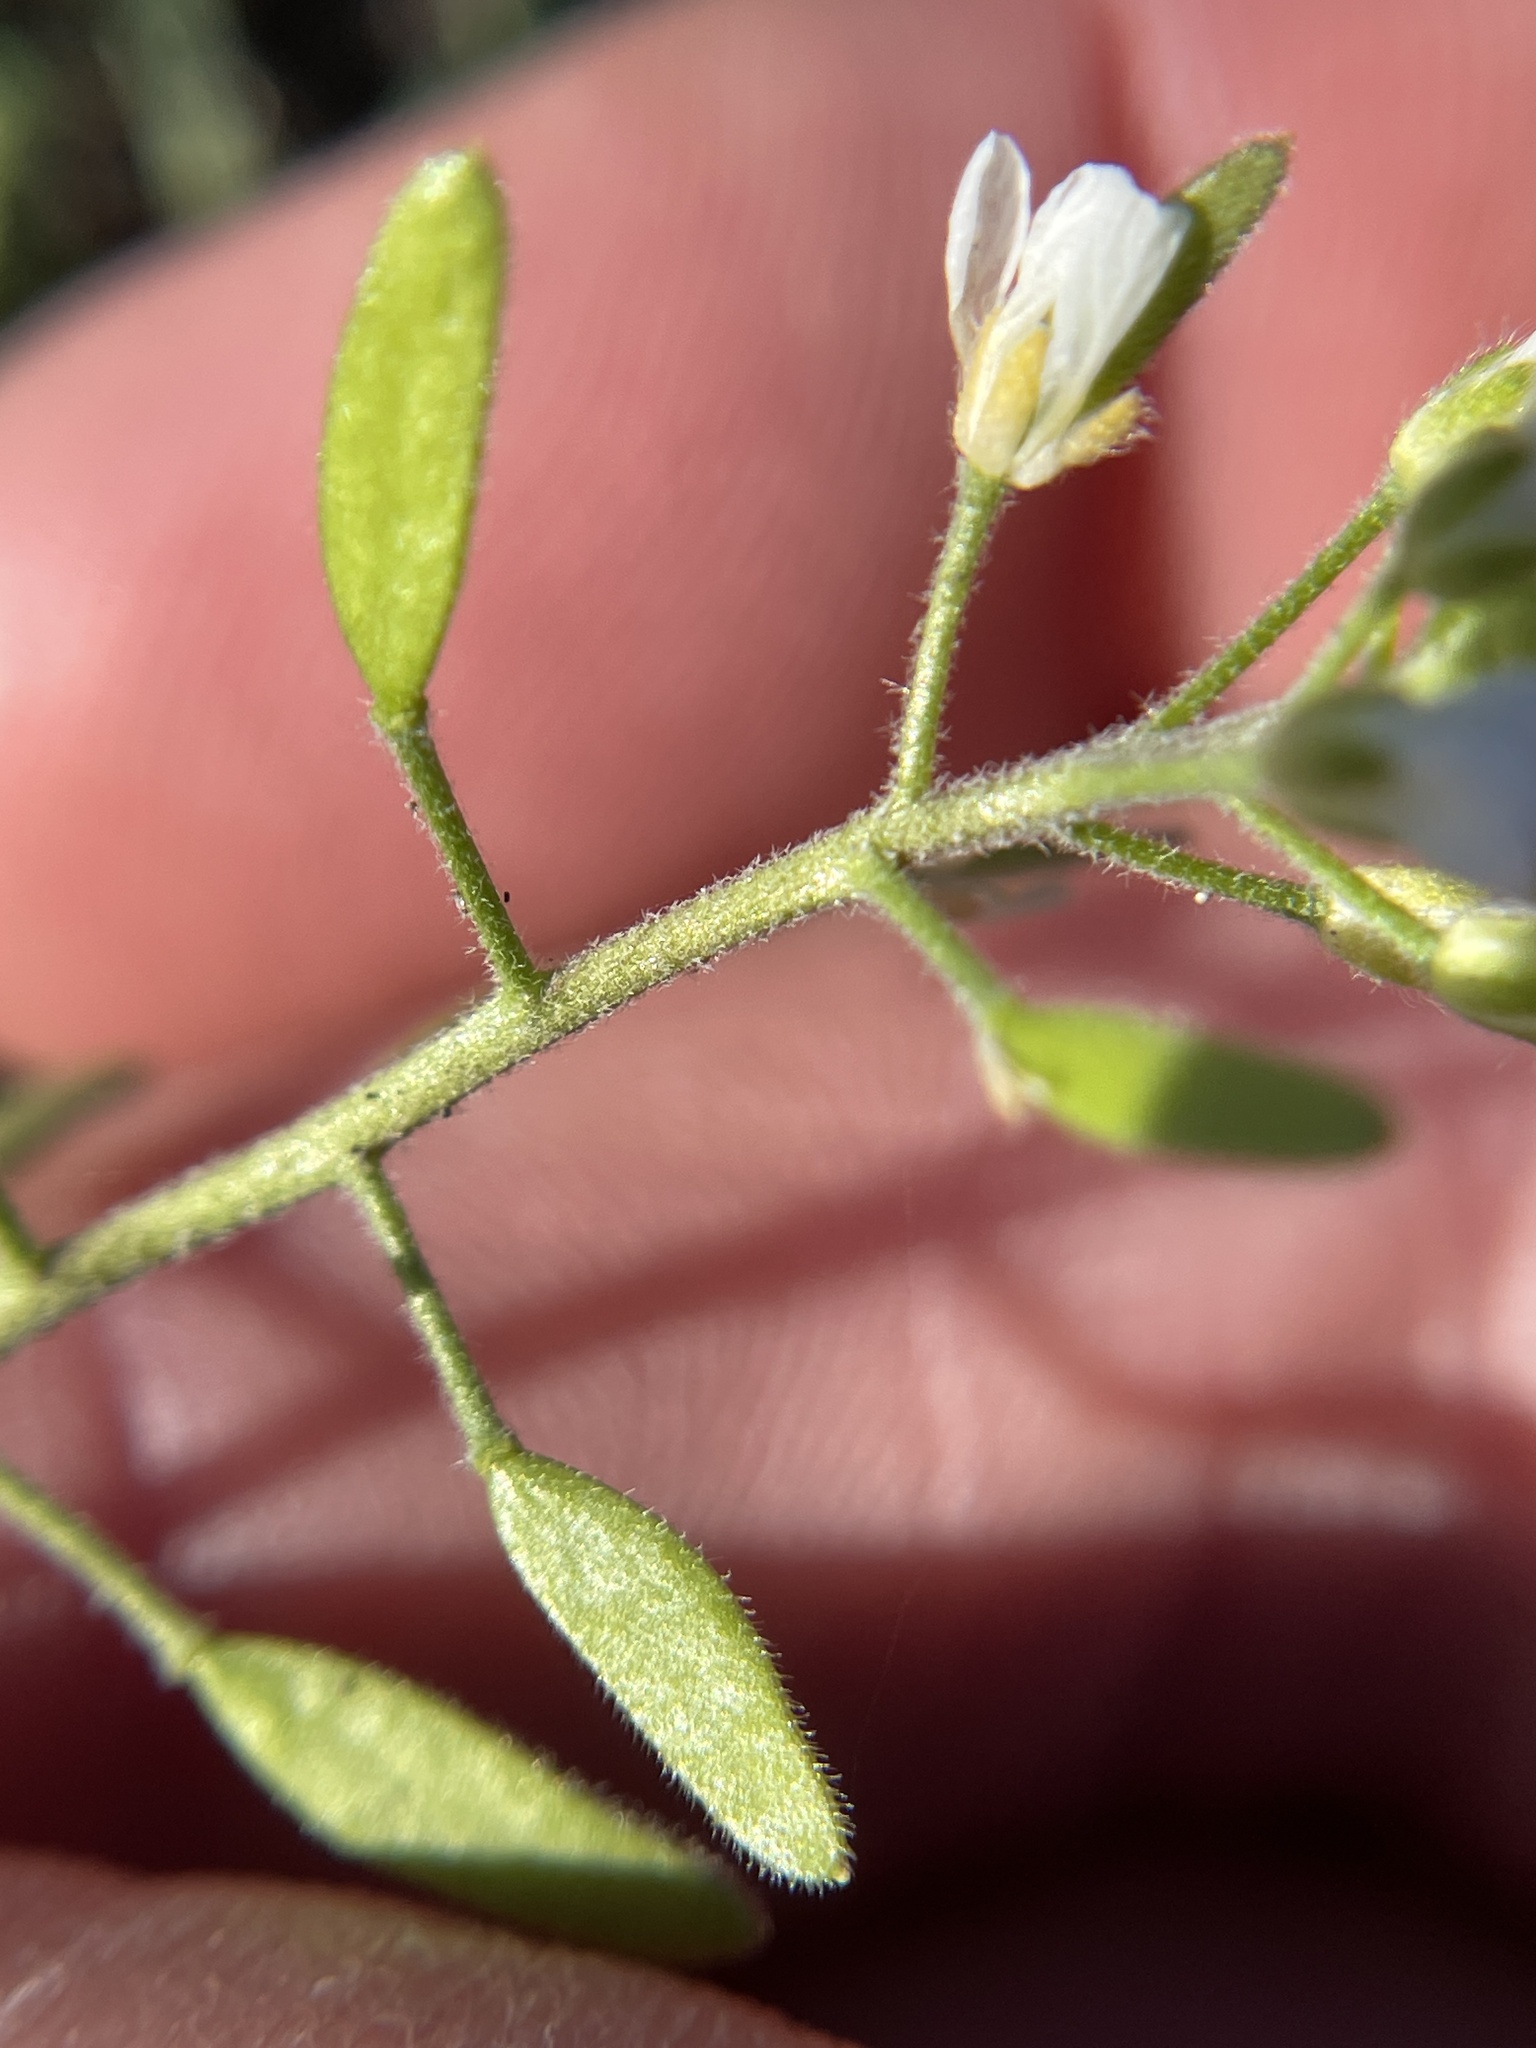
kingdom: Plantae
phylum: Tracheophyta
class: Magnoliopsida
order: Brassicales
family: Brassicaceae
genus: Tomostima
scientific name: Tomostima cuneifolia
